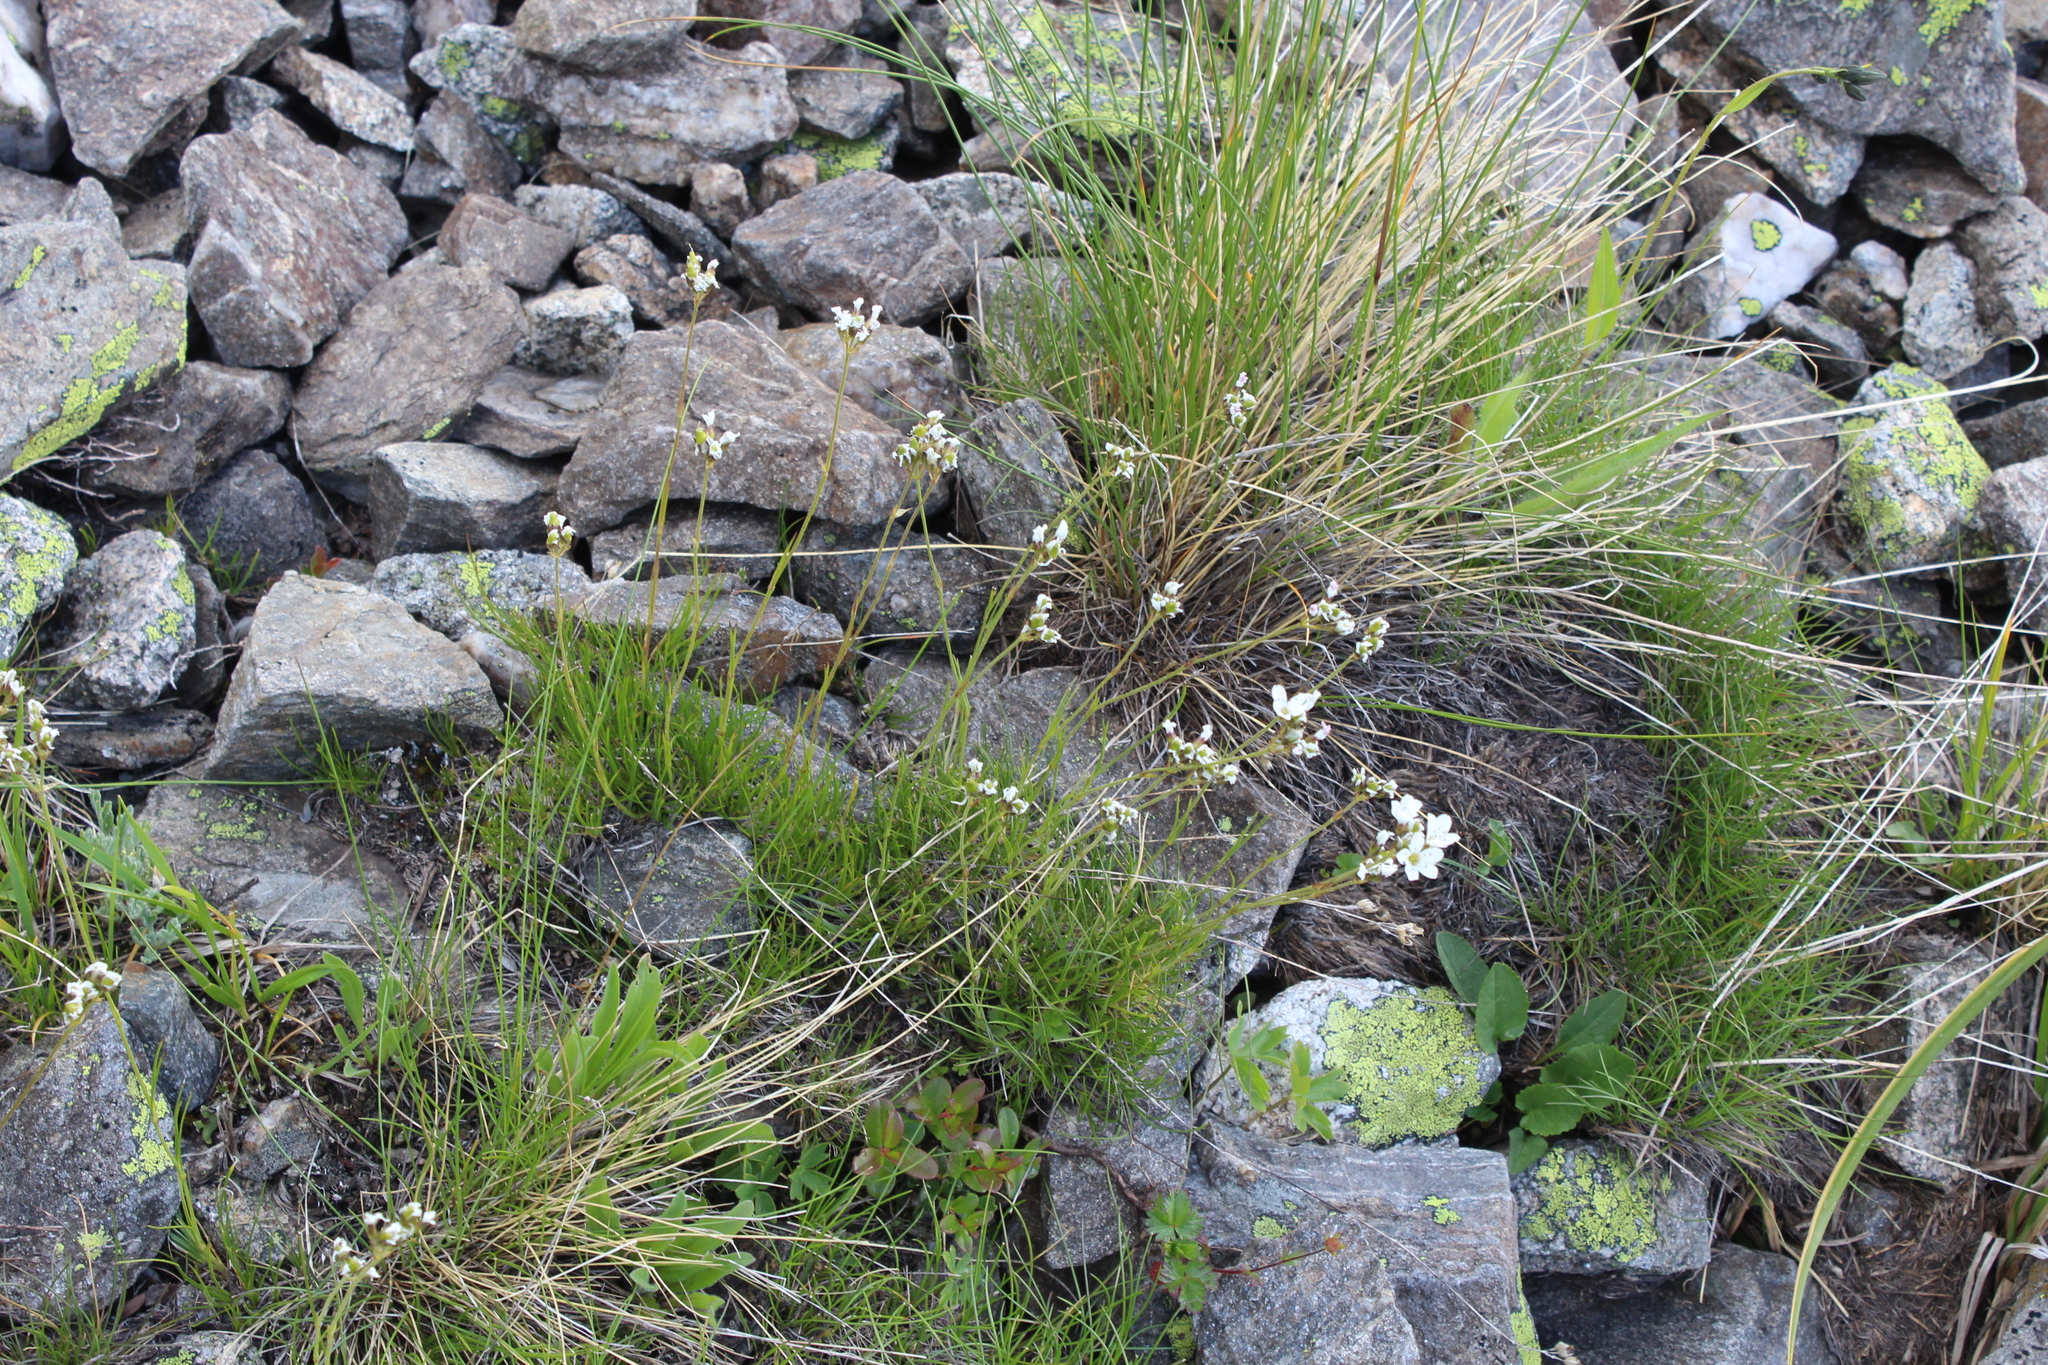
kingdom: Plantae
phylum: Tracheophyta
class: Magnoliopsida
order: Caryophyllales
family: Caryophyllaceae
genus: Eremogone
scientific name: Eremogone lychnidea
